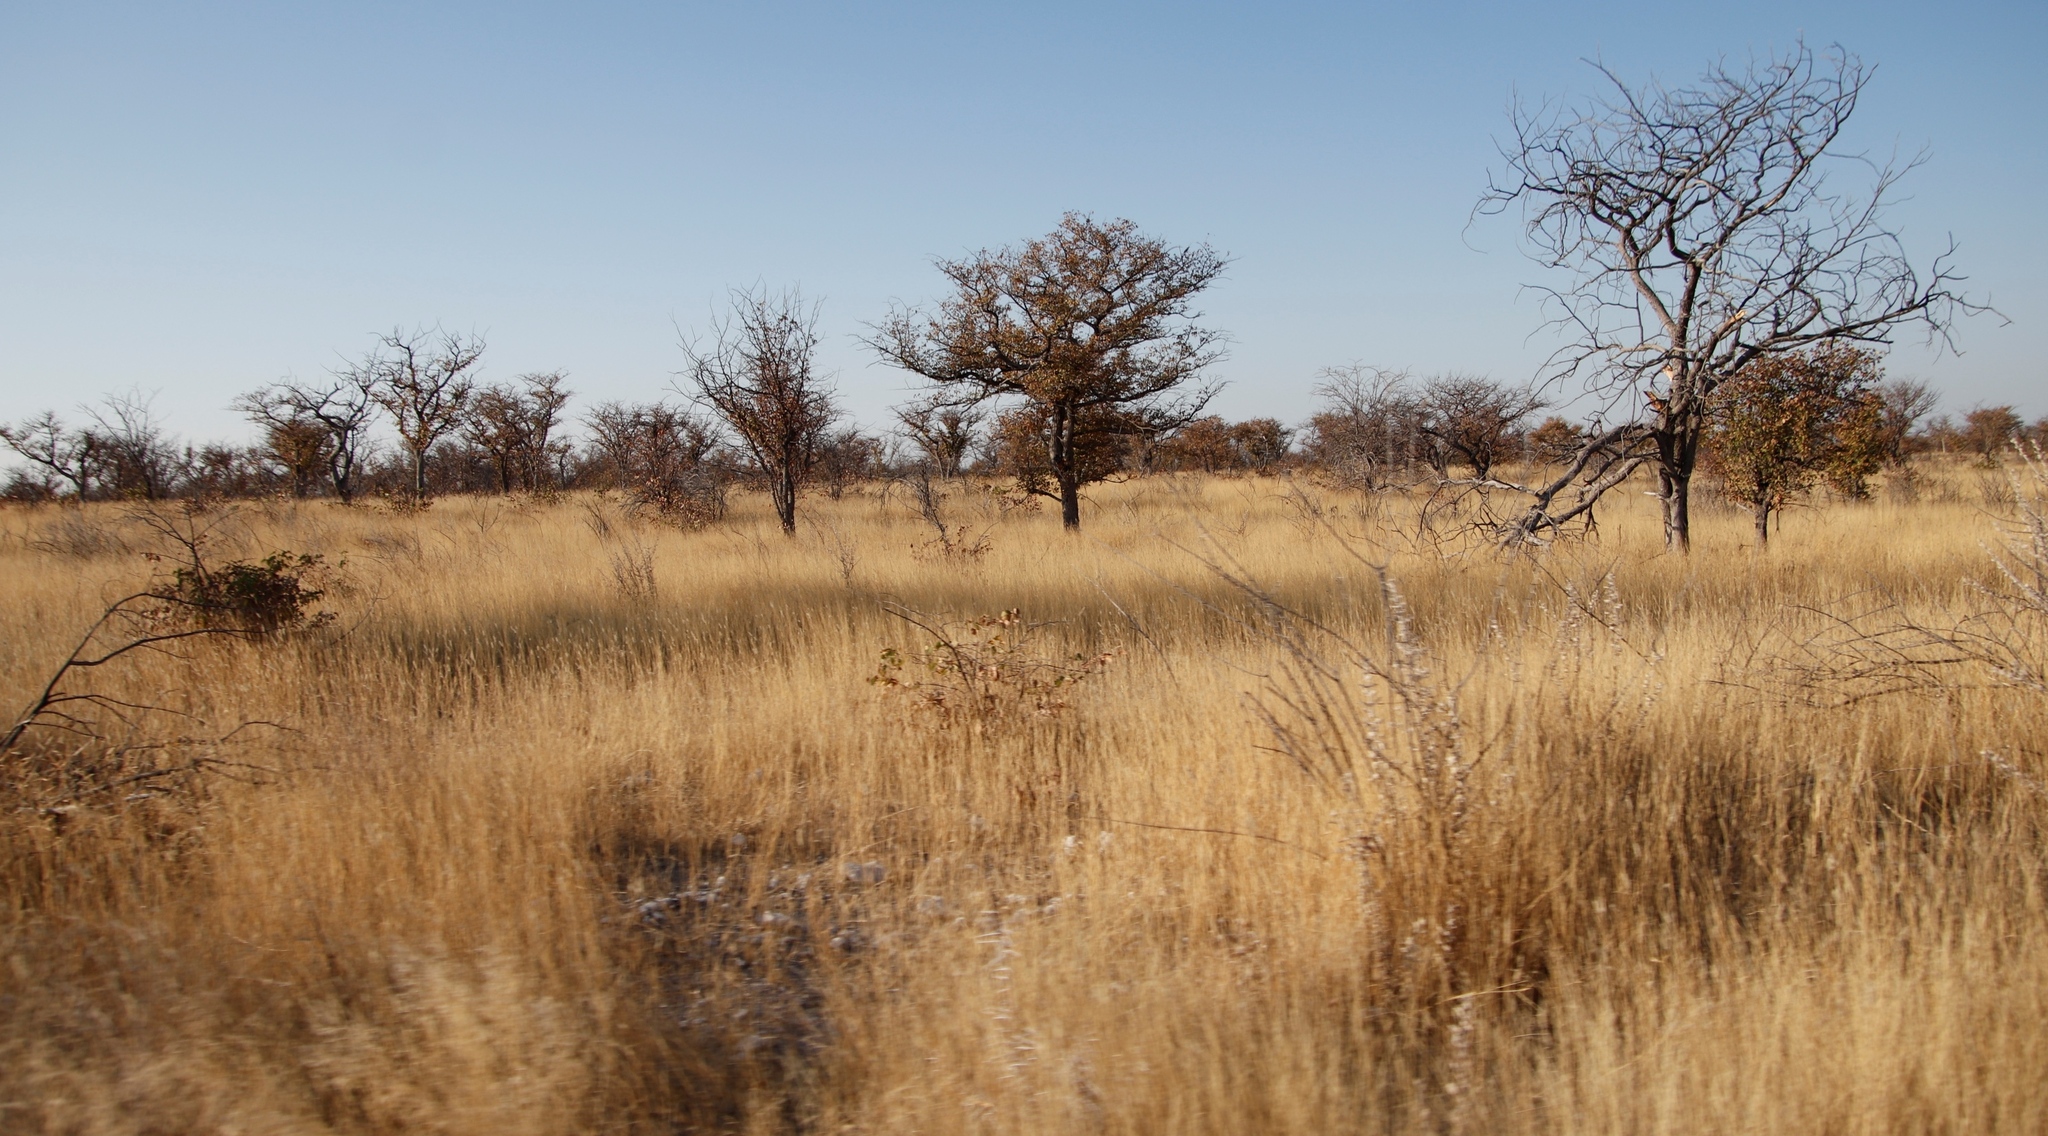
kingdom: Plantae
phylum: Tracheophyta
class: Magnoliopsida
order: Fabales
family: Fabaceae
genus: Colophospermum
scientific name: Colophospermum mopane
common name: Mopane
